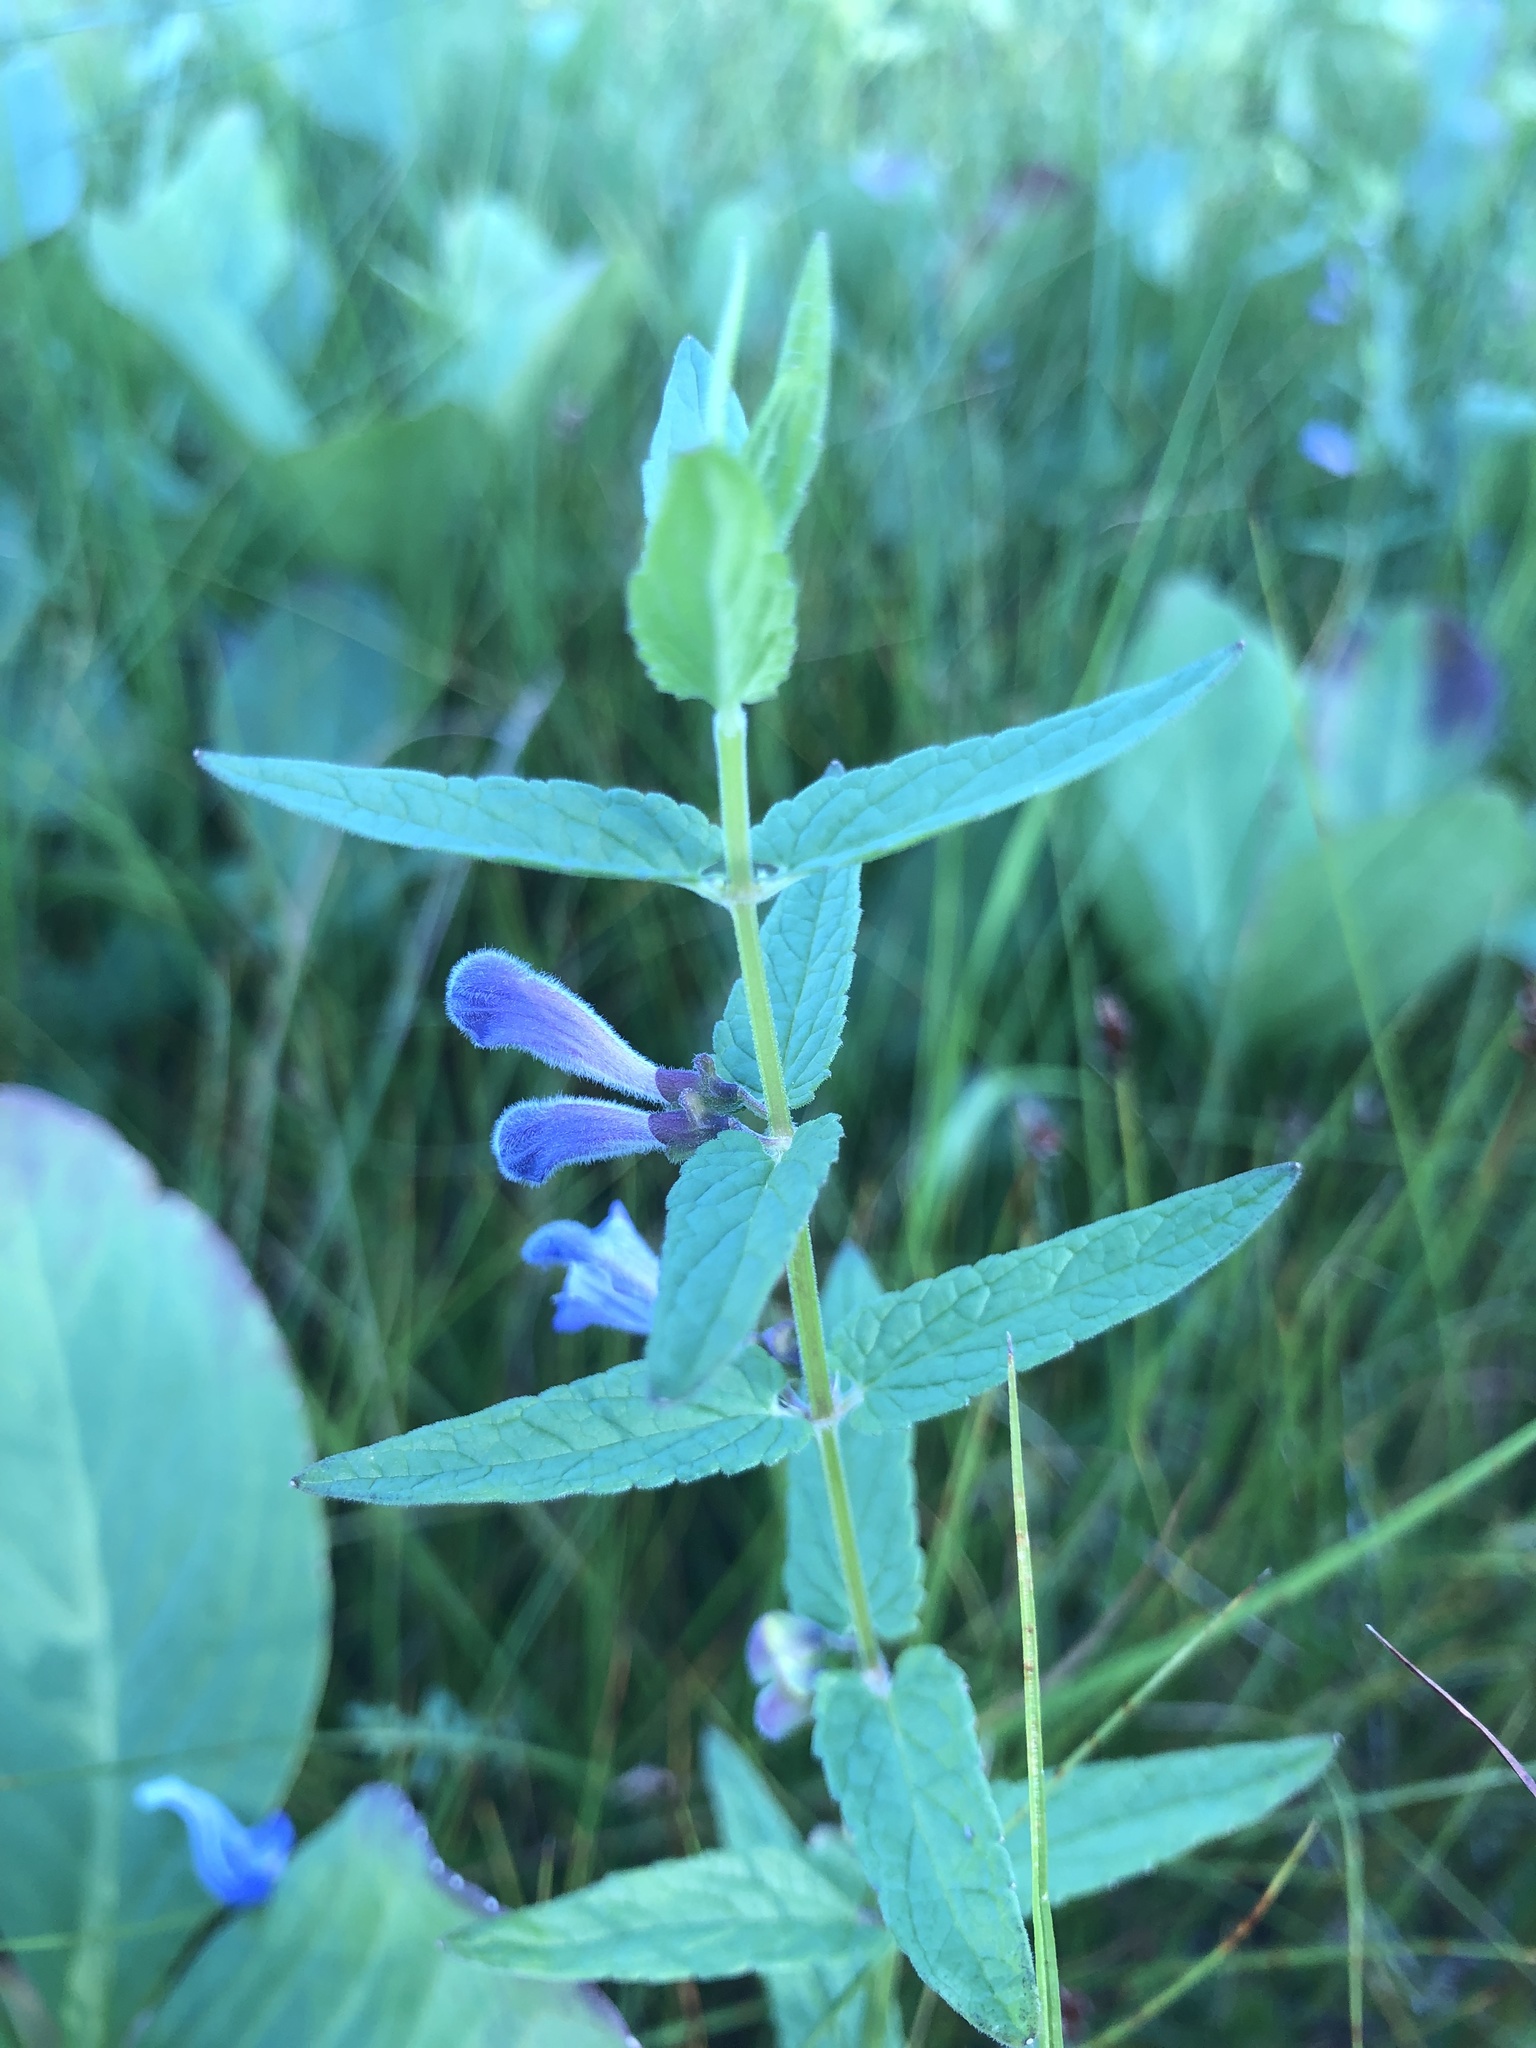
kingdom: Plantae
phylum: Tracheophyta
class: Magnoliopsida
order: Lamiales
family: Lamiaceae
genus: Scutellaria
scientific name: Scutellaria galericulata
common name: Skullcap
